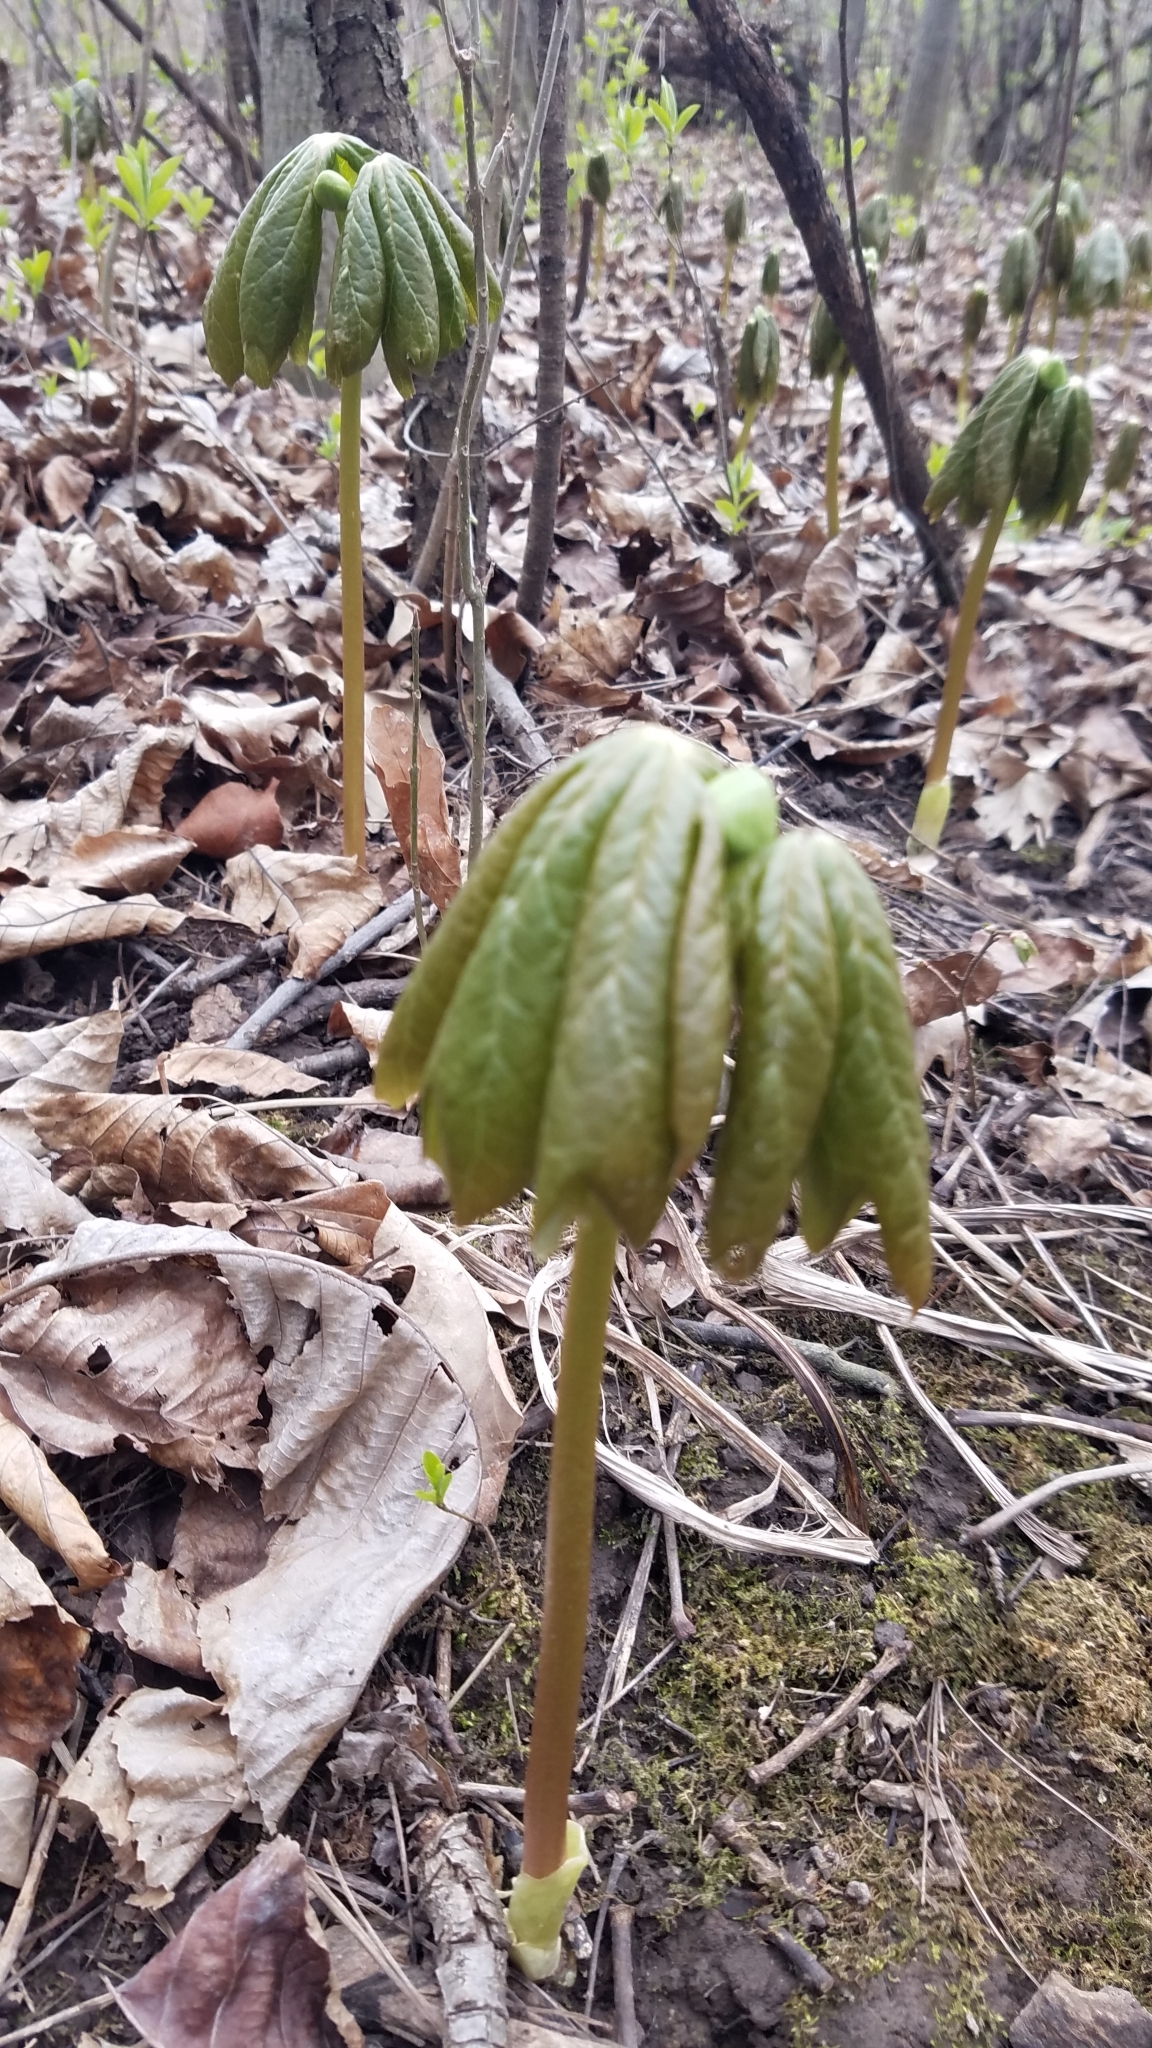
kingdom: Plantae
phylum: Tracheophyta
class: Magnoliopsida
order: Ranunculales
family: Berberidaceae
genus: Podophyllum
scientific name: Podophyllum peltatum
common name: Wild mandrake
